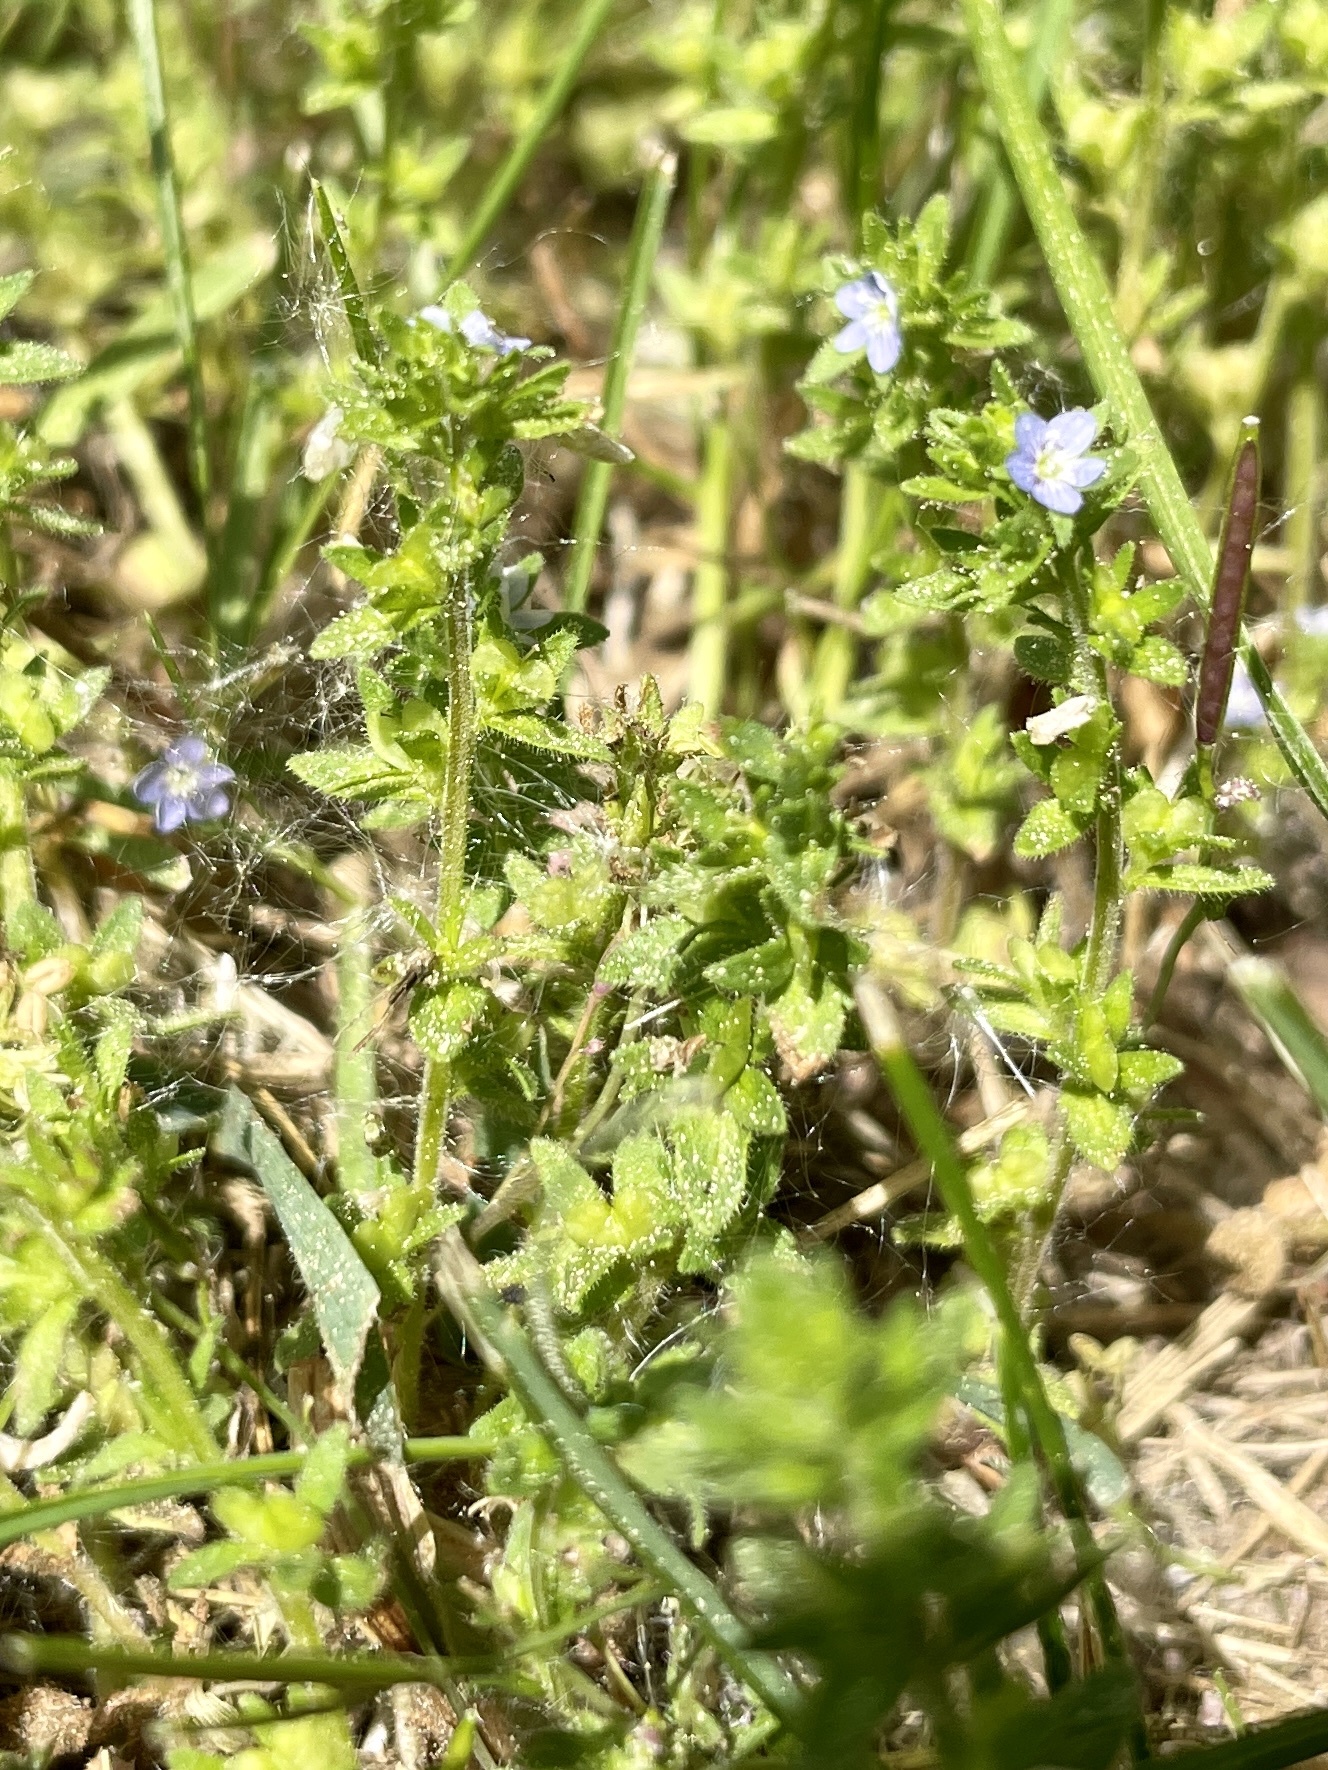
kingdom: Plantae
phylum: Tracheophyta
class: Magnoliopsida
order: Lamiales
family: Plantaginaceae
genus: Veronica
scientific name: Veronica arvensis
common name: Corn speedwell
